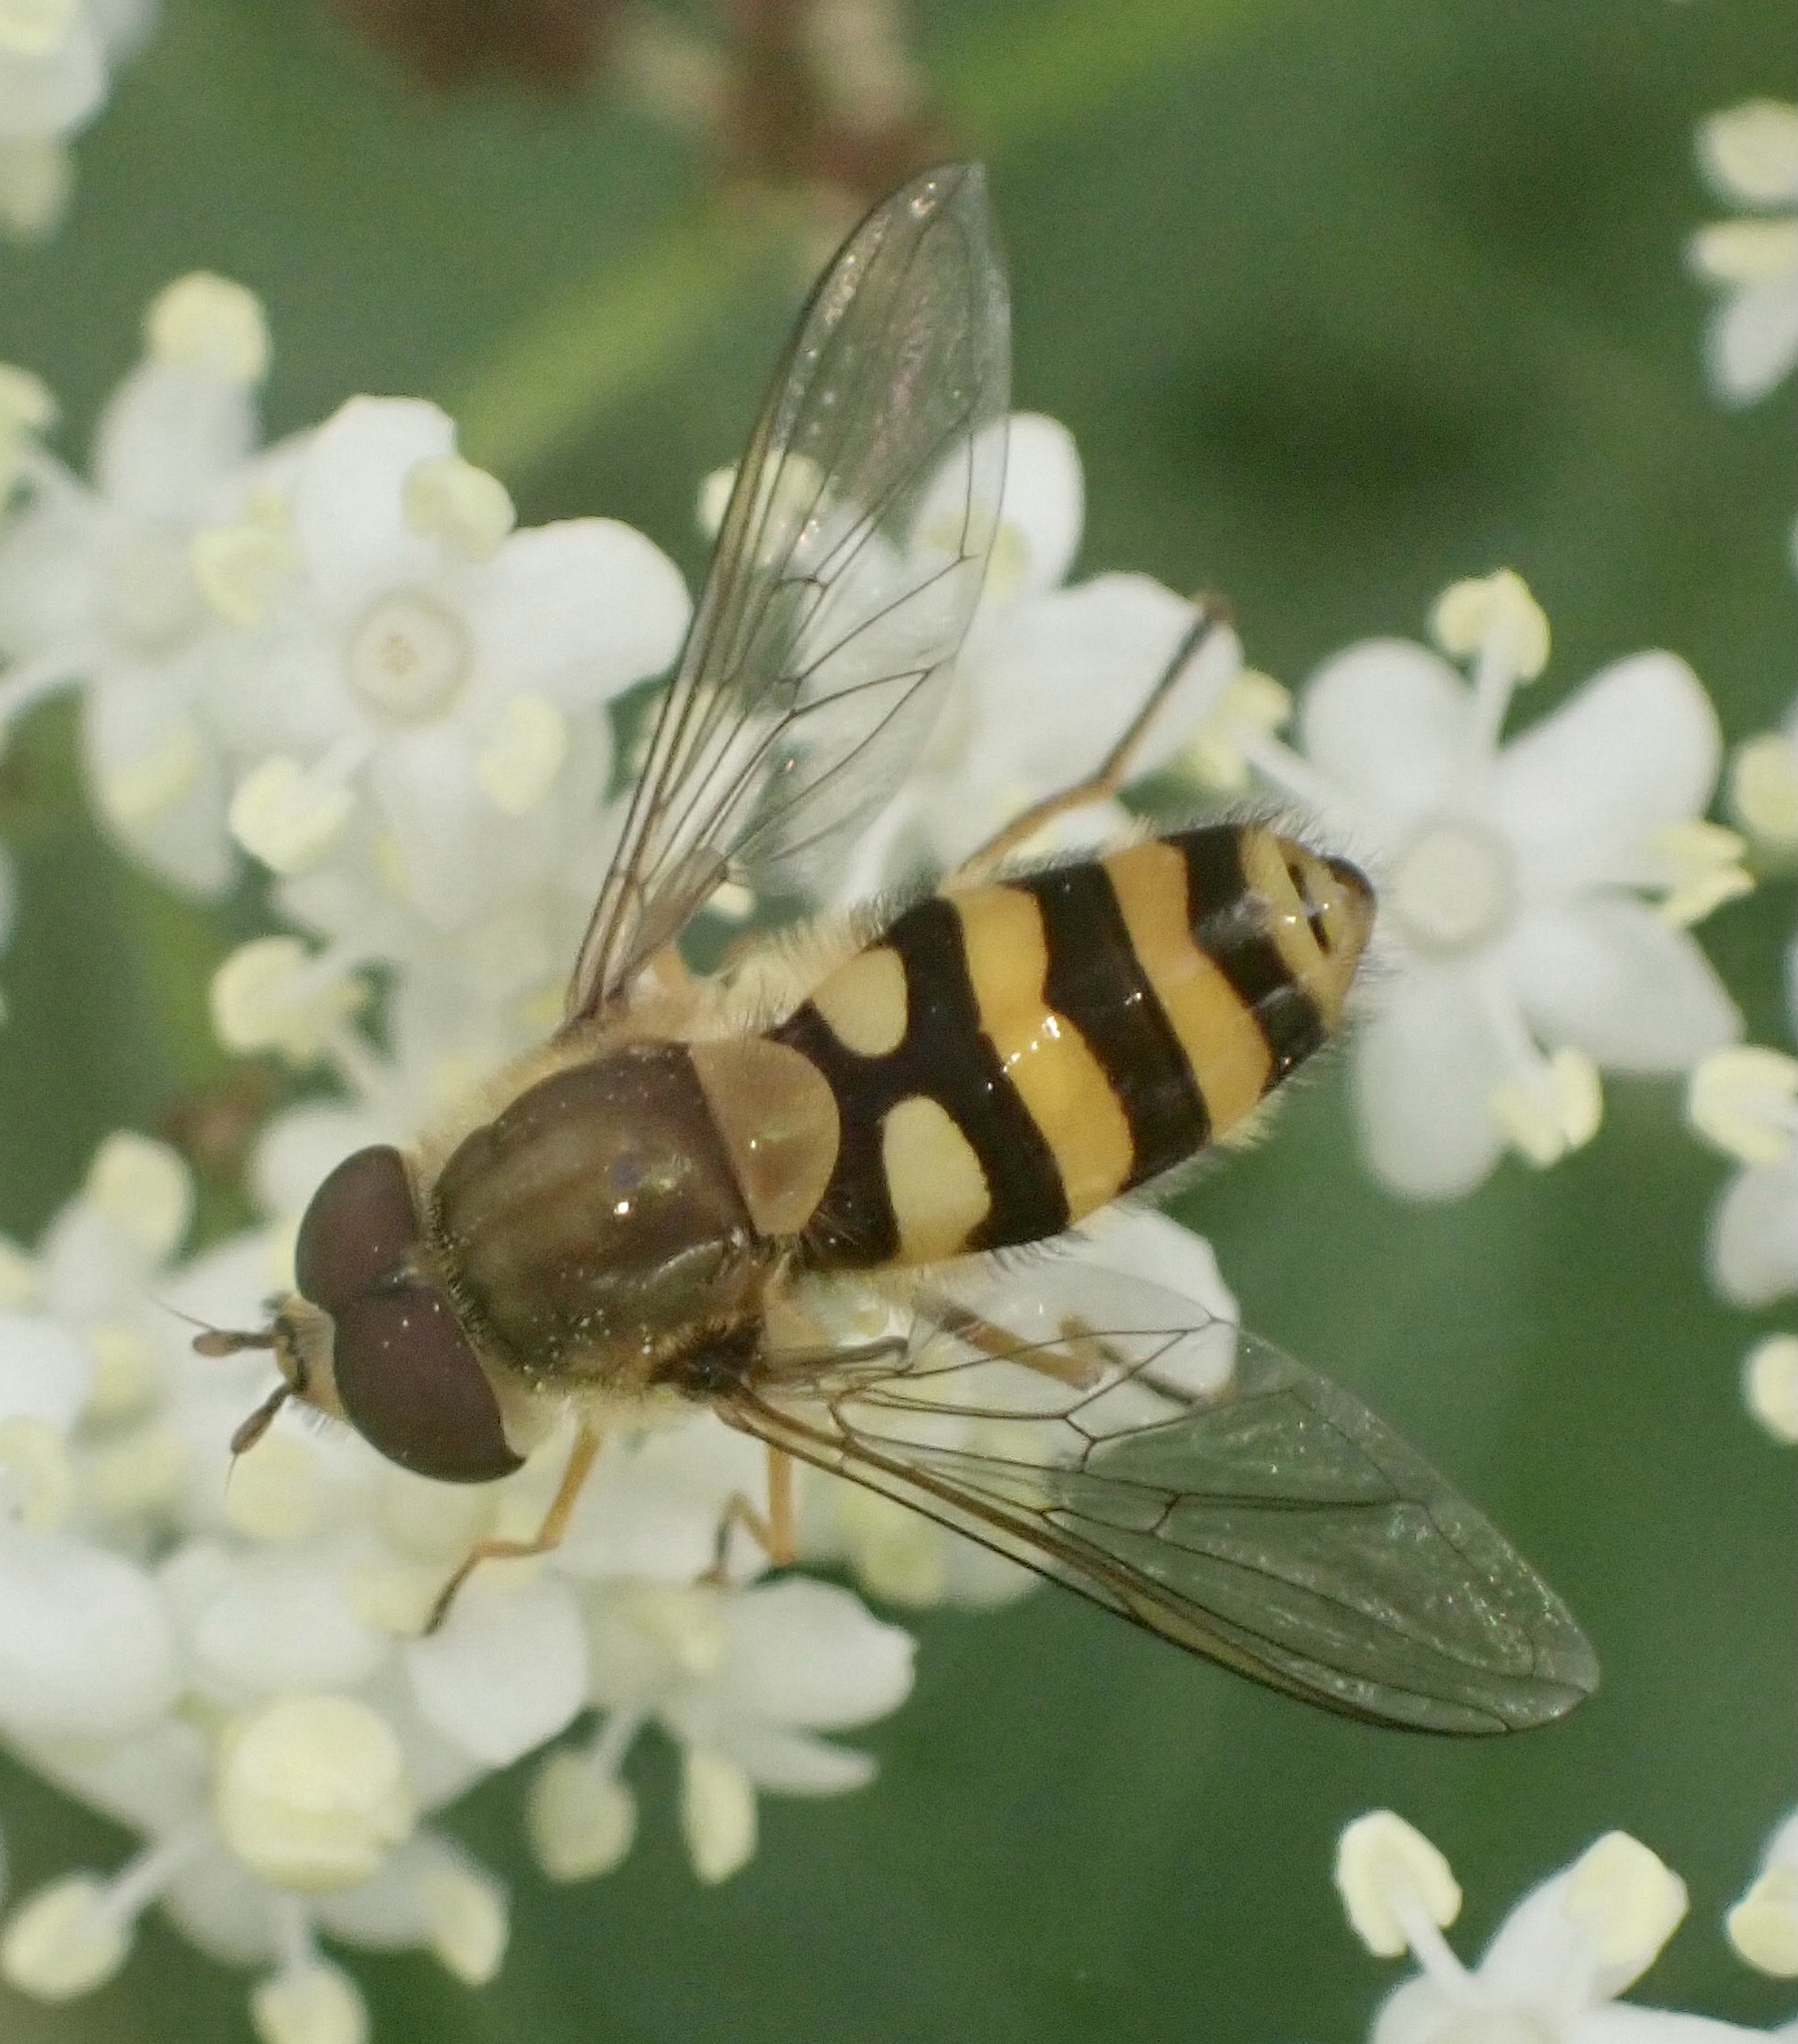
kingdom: Animalia
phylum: Arthropoda
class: Insecta
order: Diptera
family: Syrphidae
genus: Eupeodes
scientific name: Eupeodes corollae
